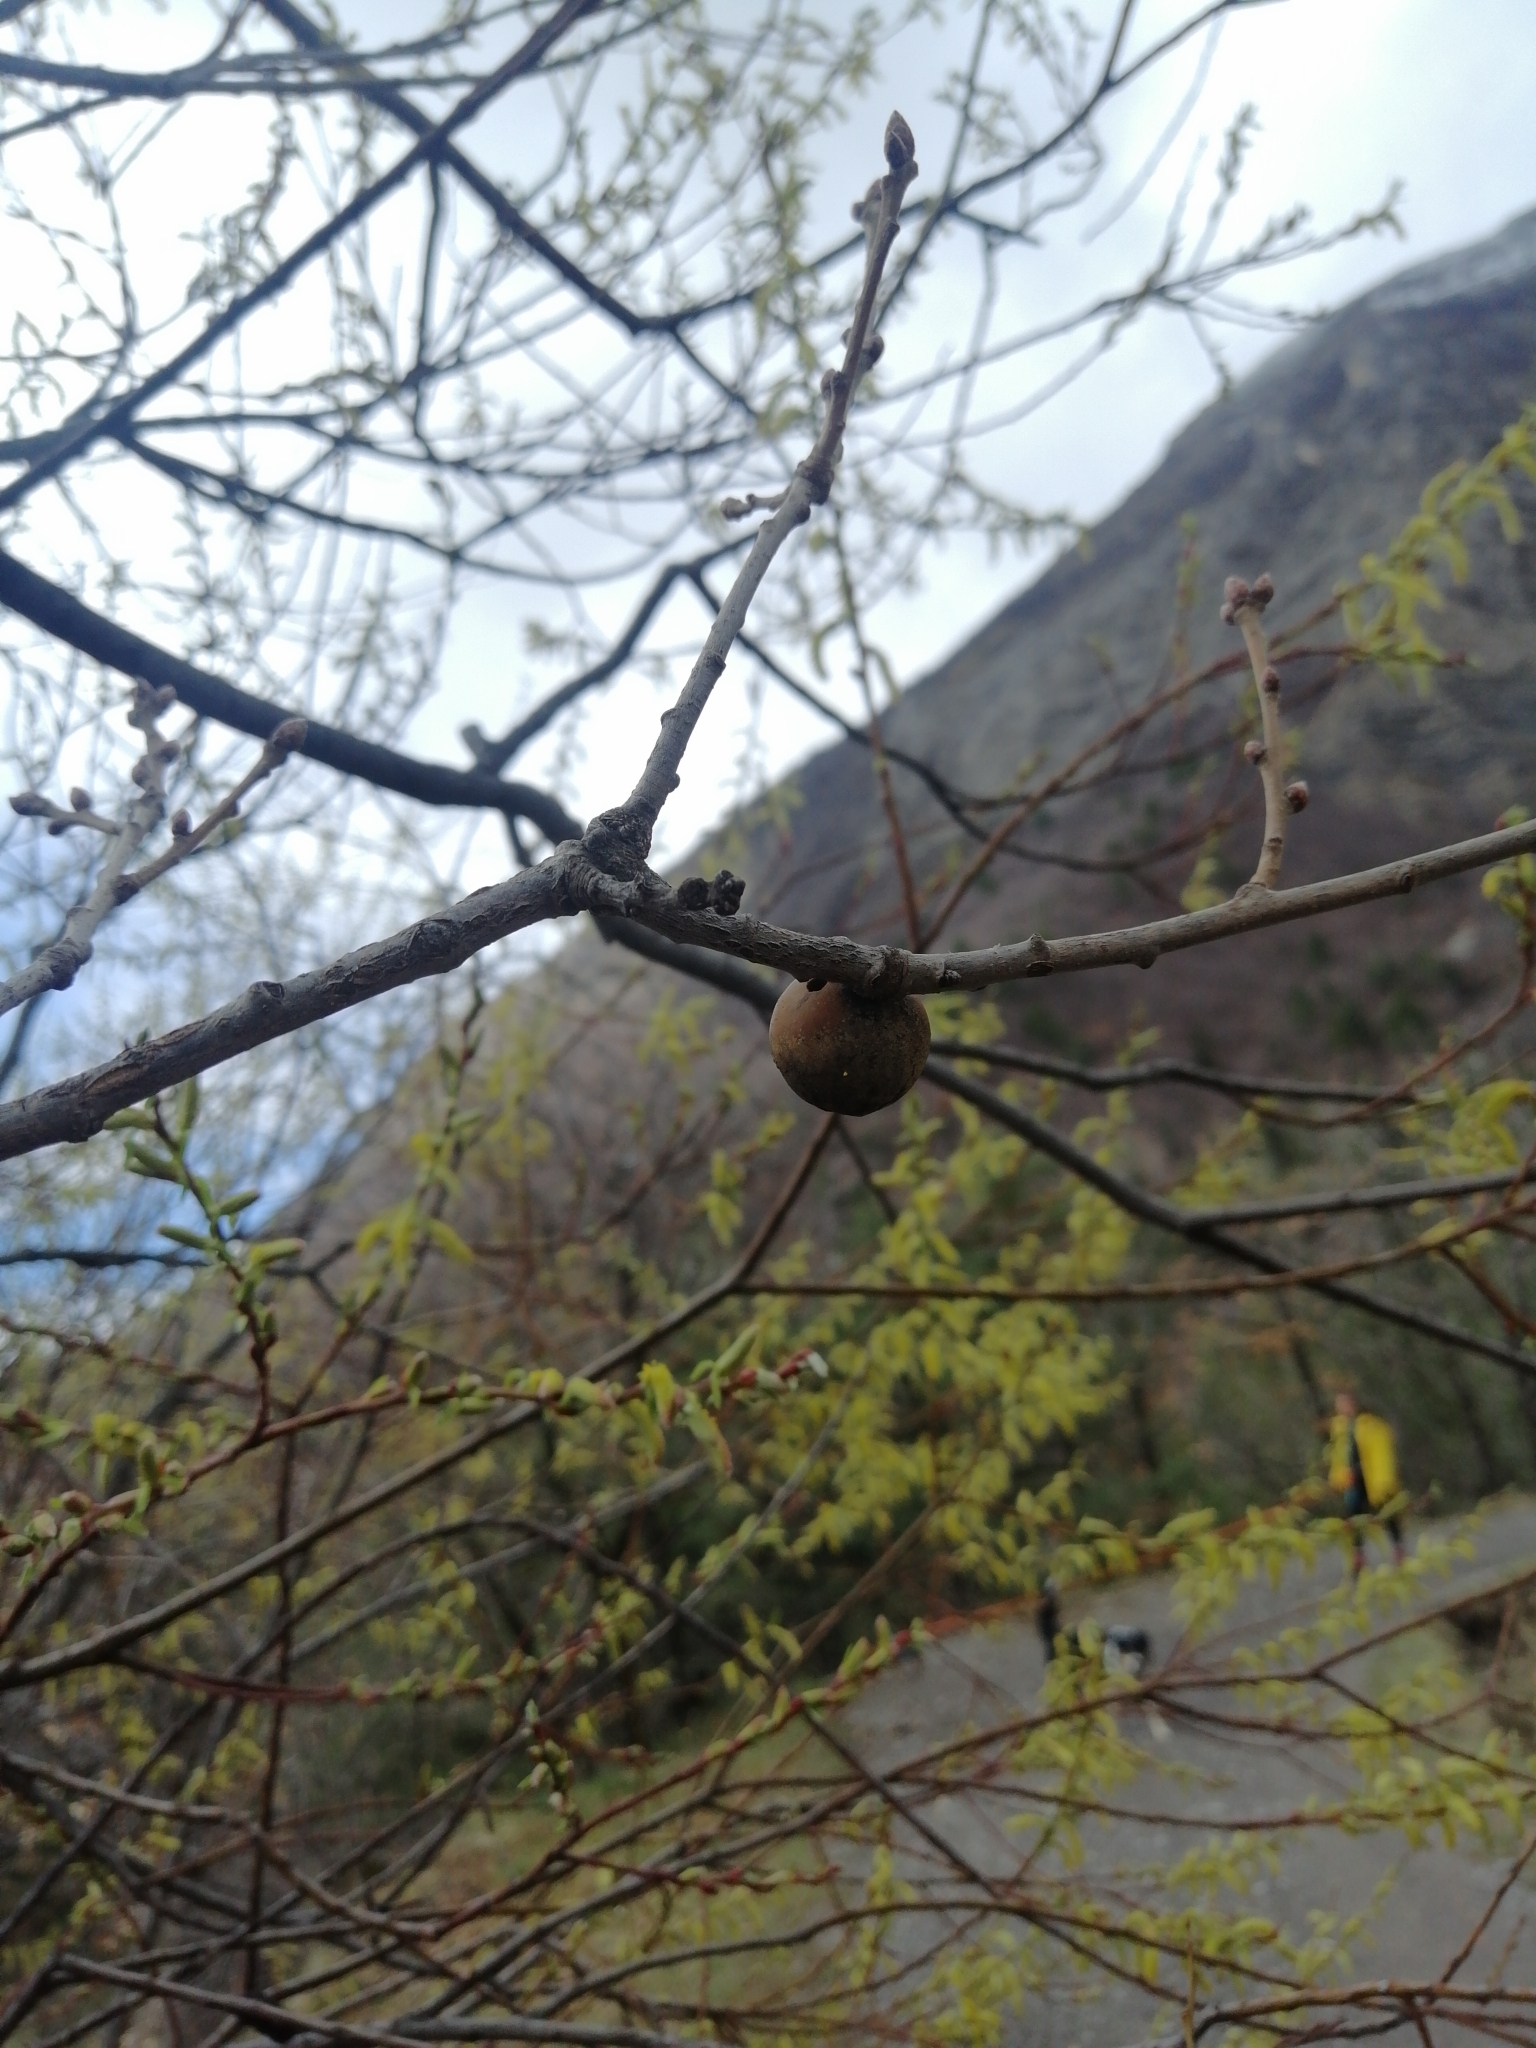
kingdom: Animalia
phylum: Arthropoda
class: Insecta
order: Hymenoptera
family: Cynipidae
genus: Andricus
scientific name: Andricus kollari
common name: Marble gall
